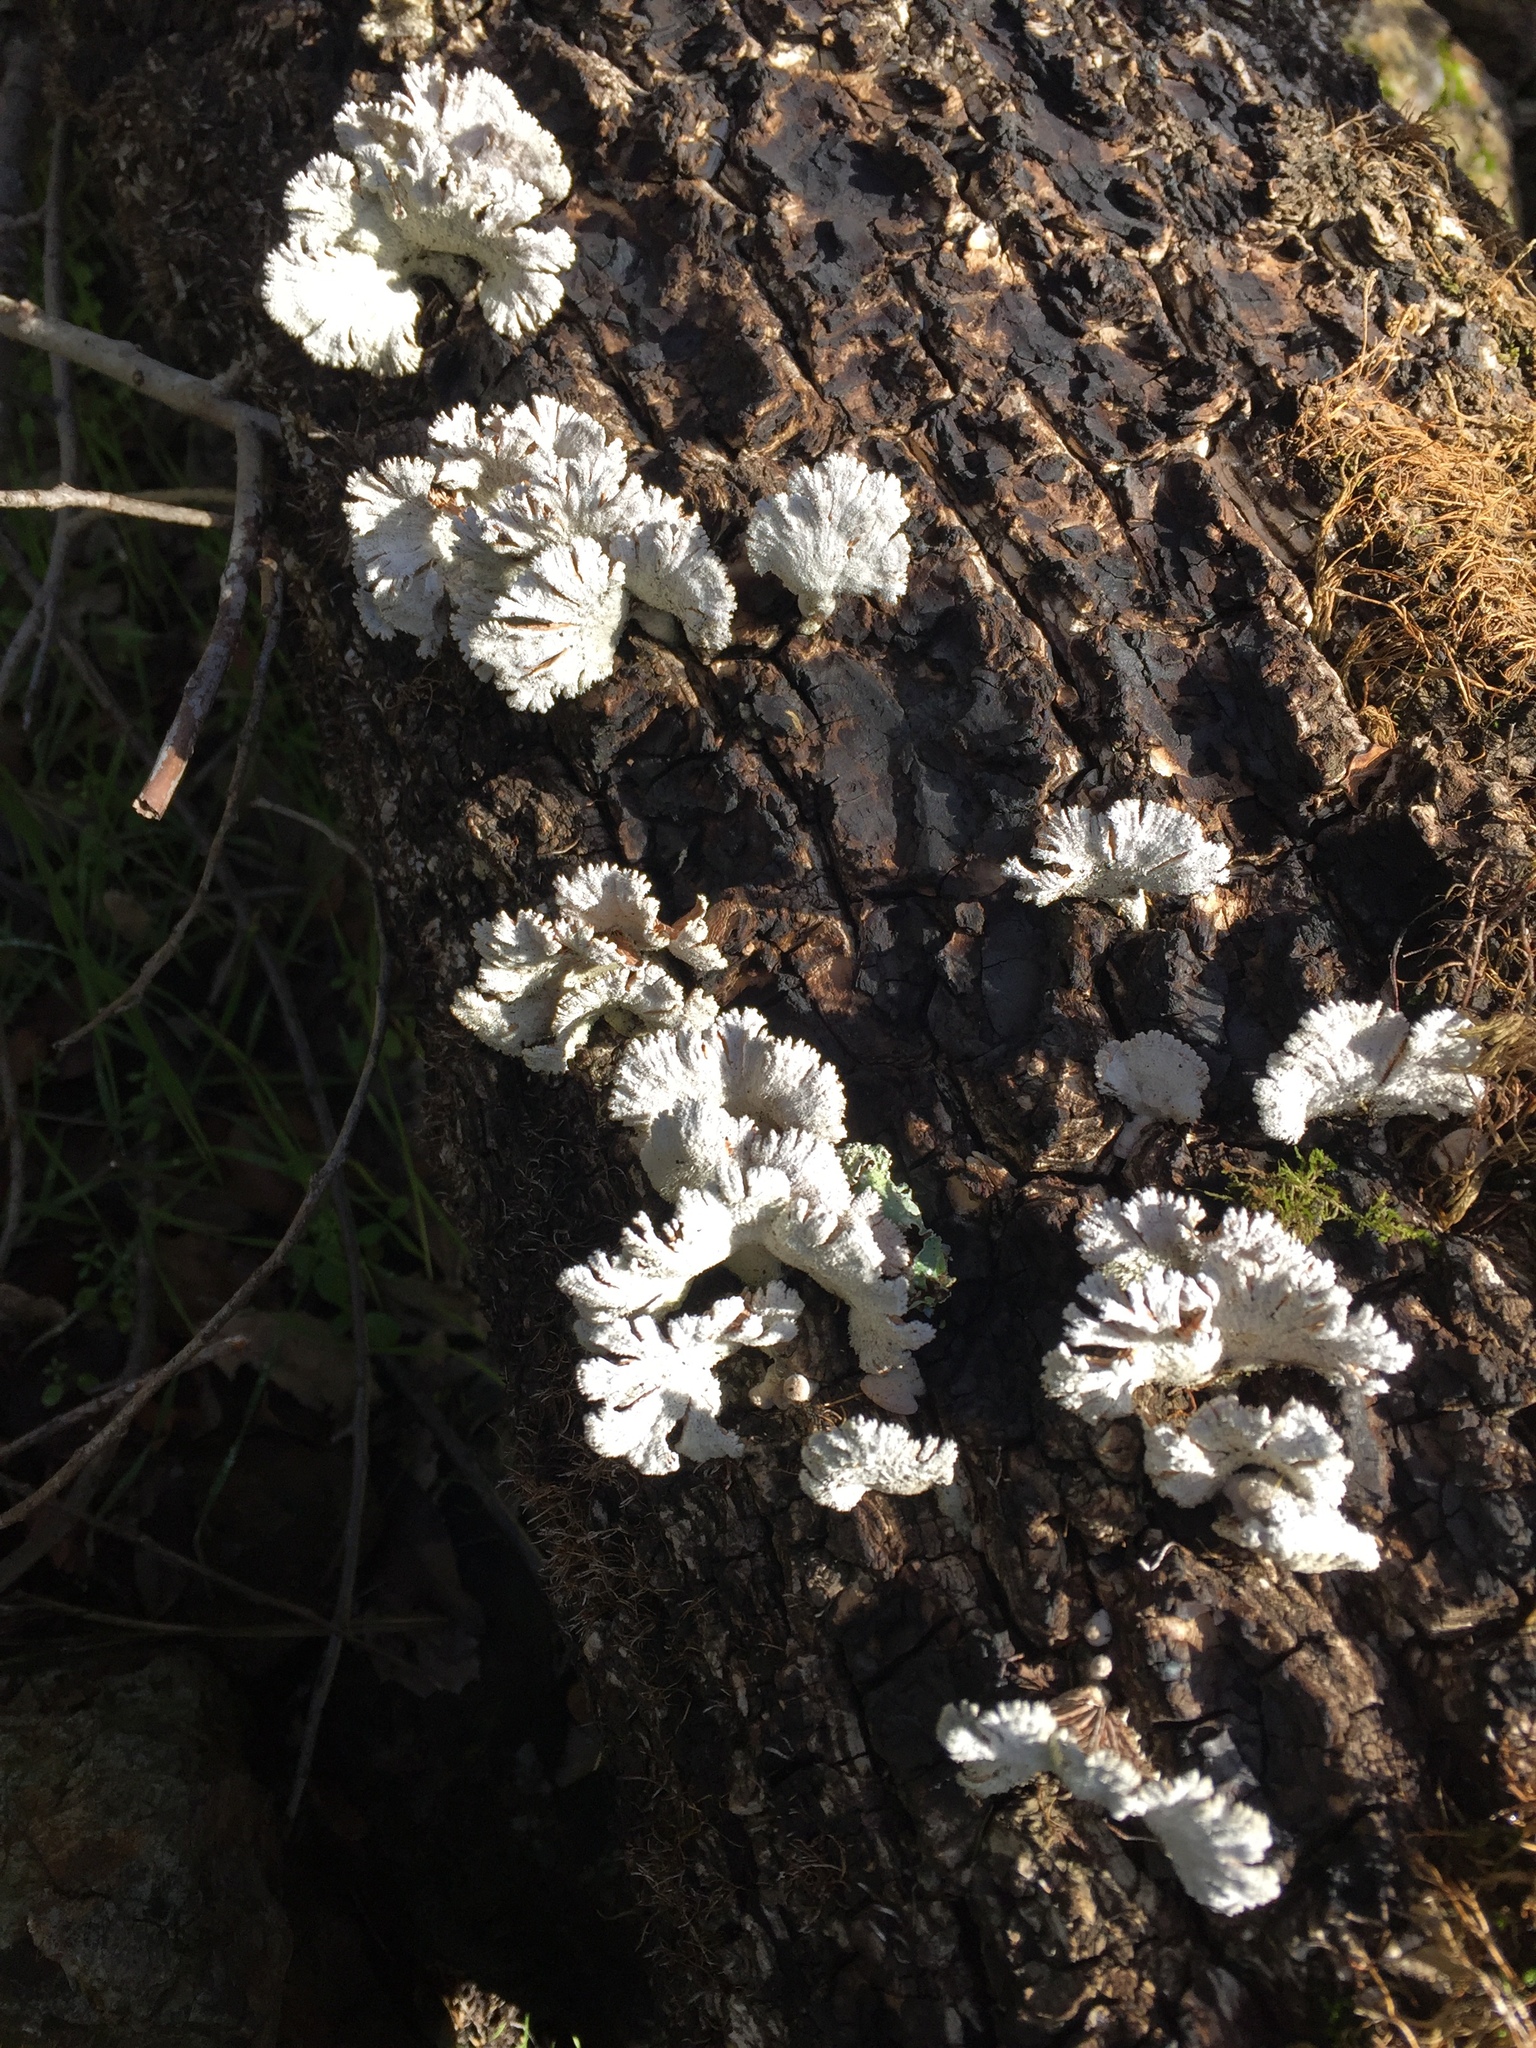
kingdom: Fungi
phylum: Basidiomycota
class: Agaricomycetes
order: Agaricales
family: Schizophyllaceae
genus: Schizophyllum
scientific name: Schizophyllum commune
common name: Common porecrust
